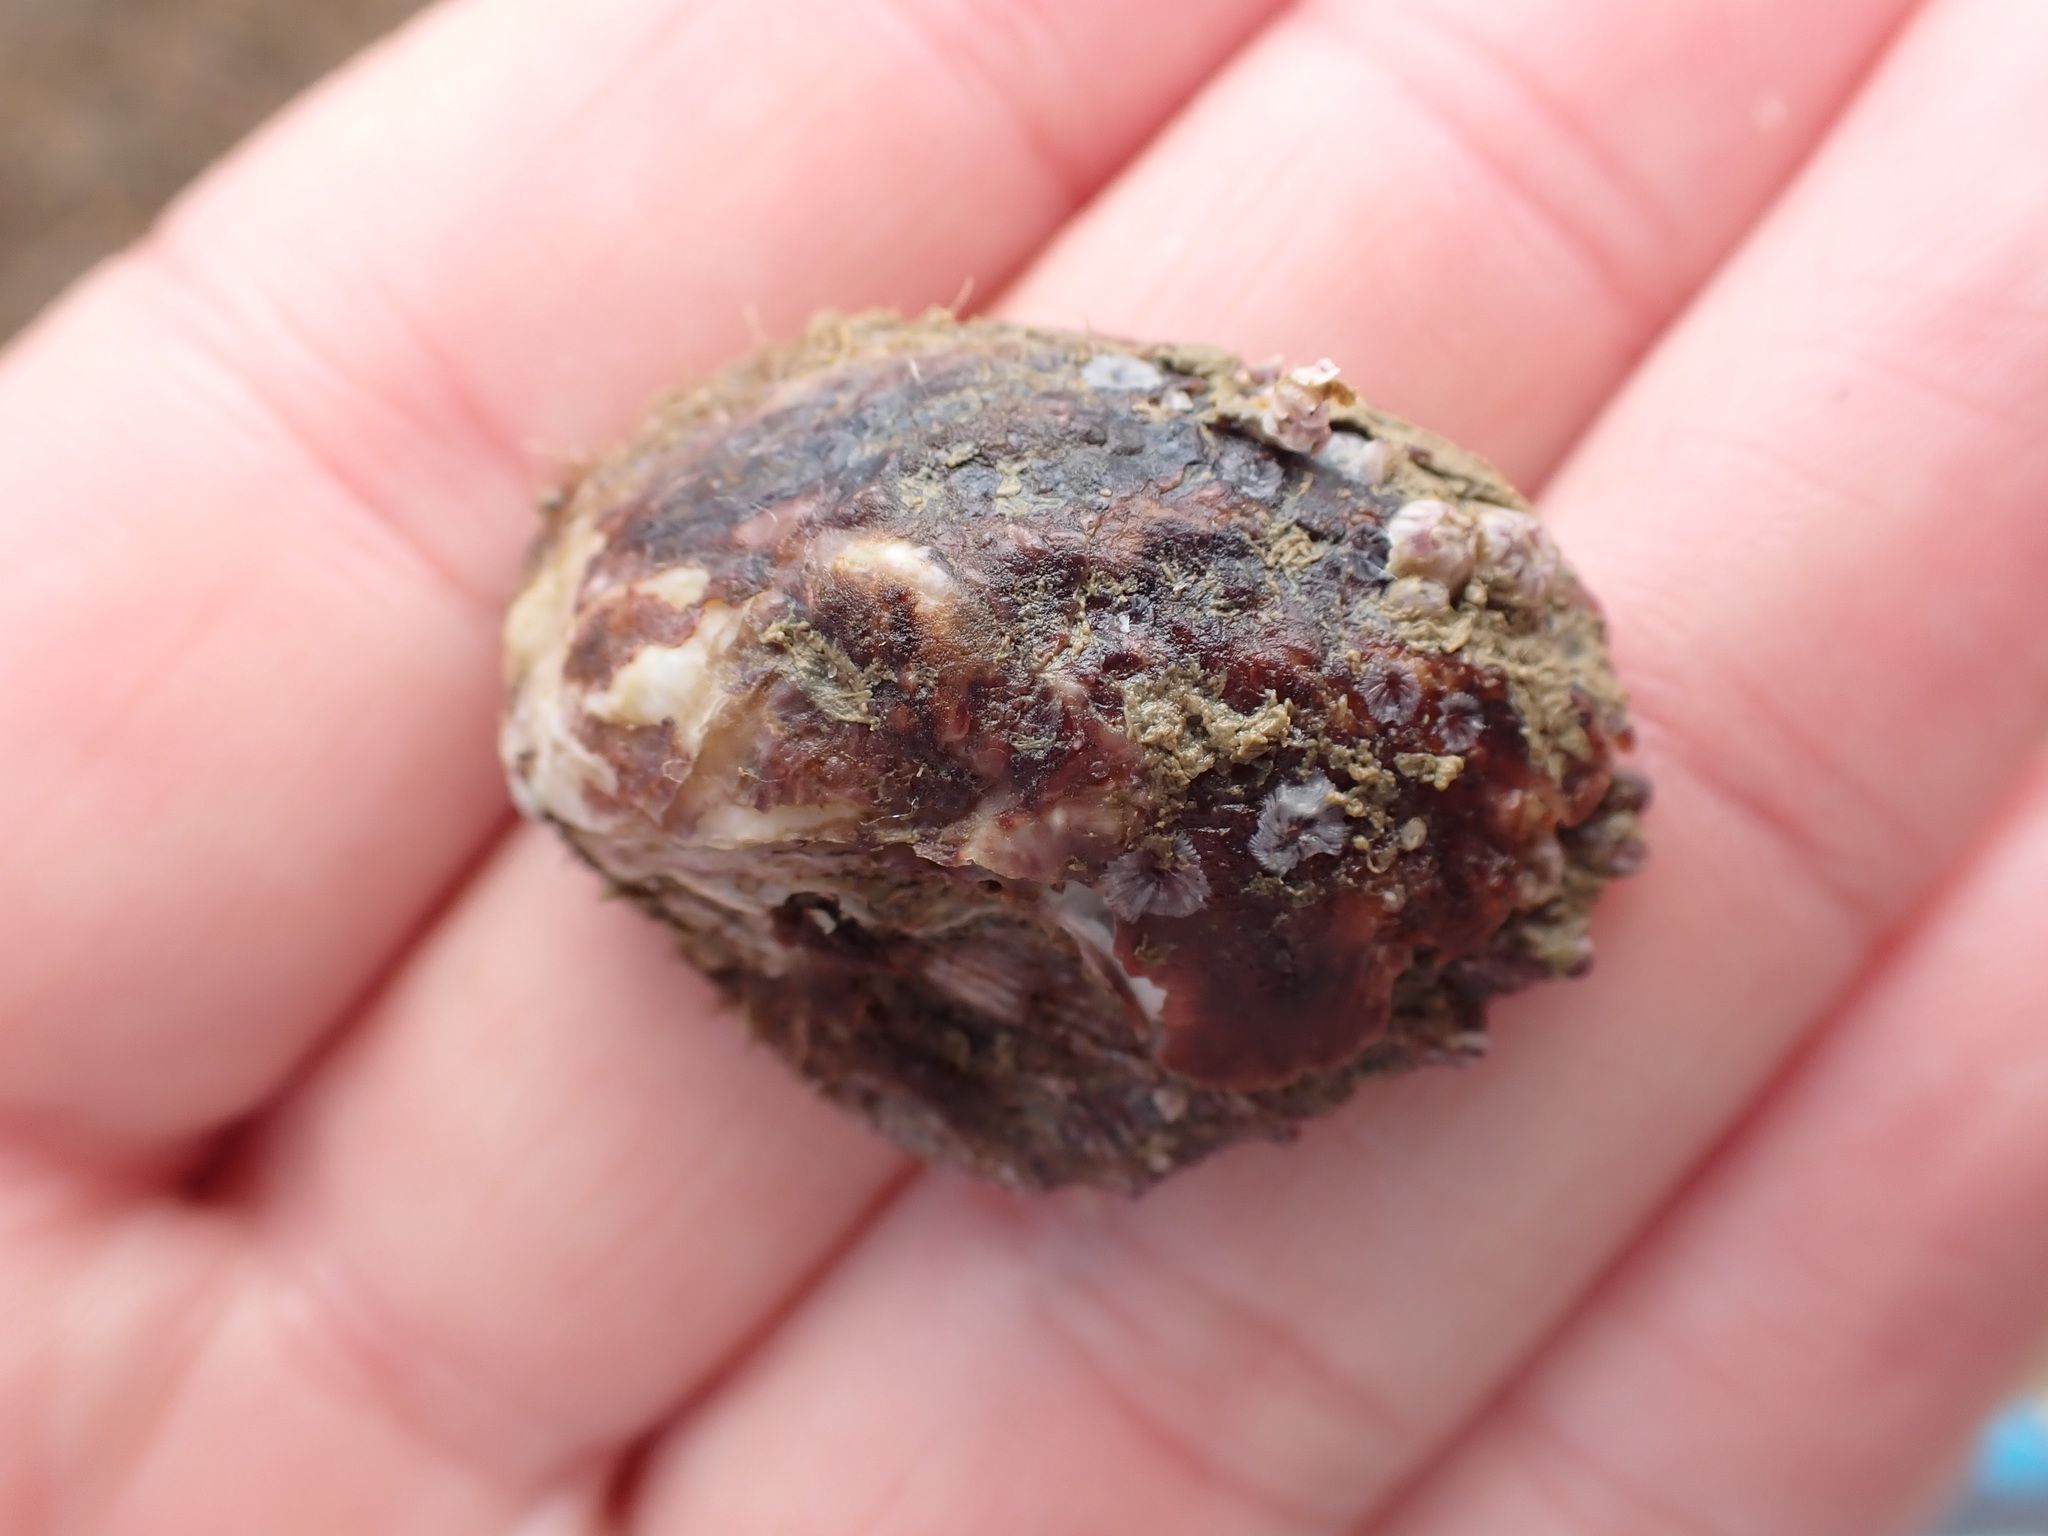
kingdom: Animalia
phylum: Mollusca
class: Bivalvia
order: Ostreida
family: Ostreidae
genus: Magallana
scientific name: Magallana gigas
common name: Pacific oyster
